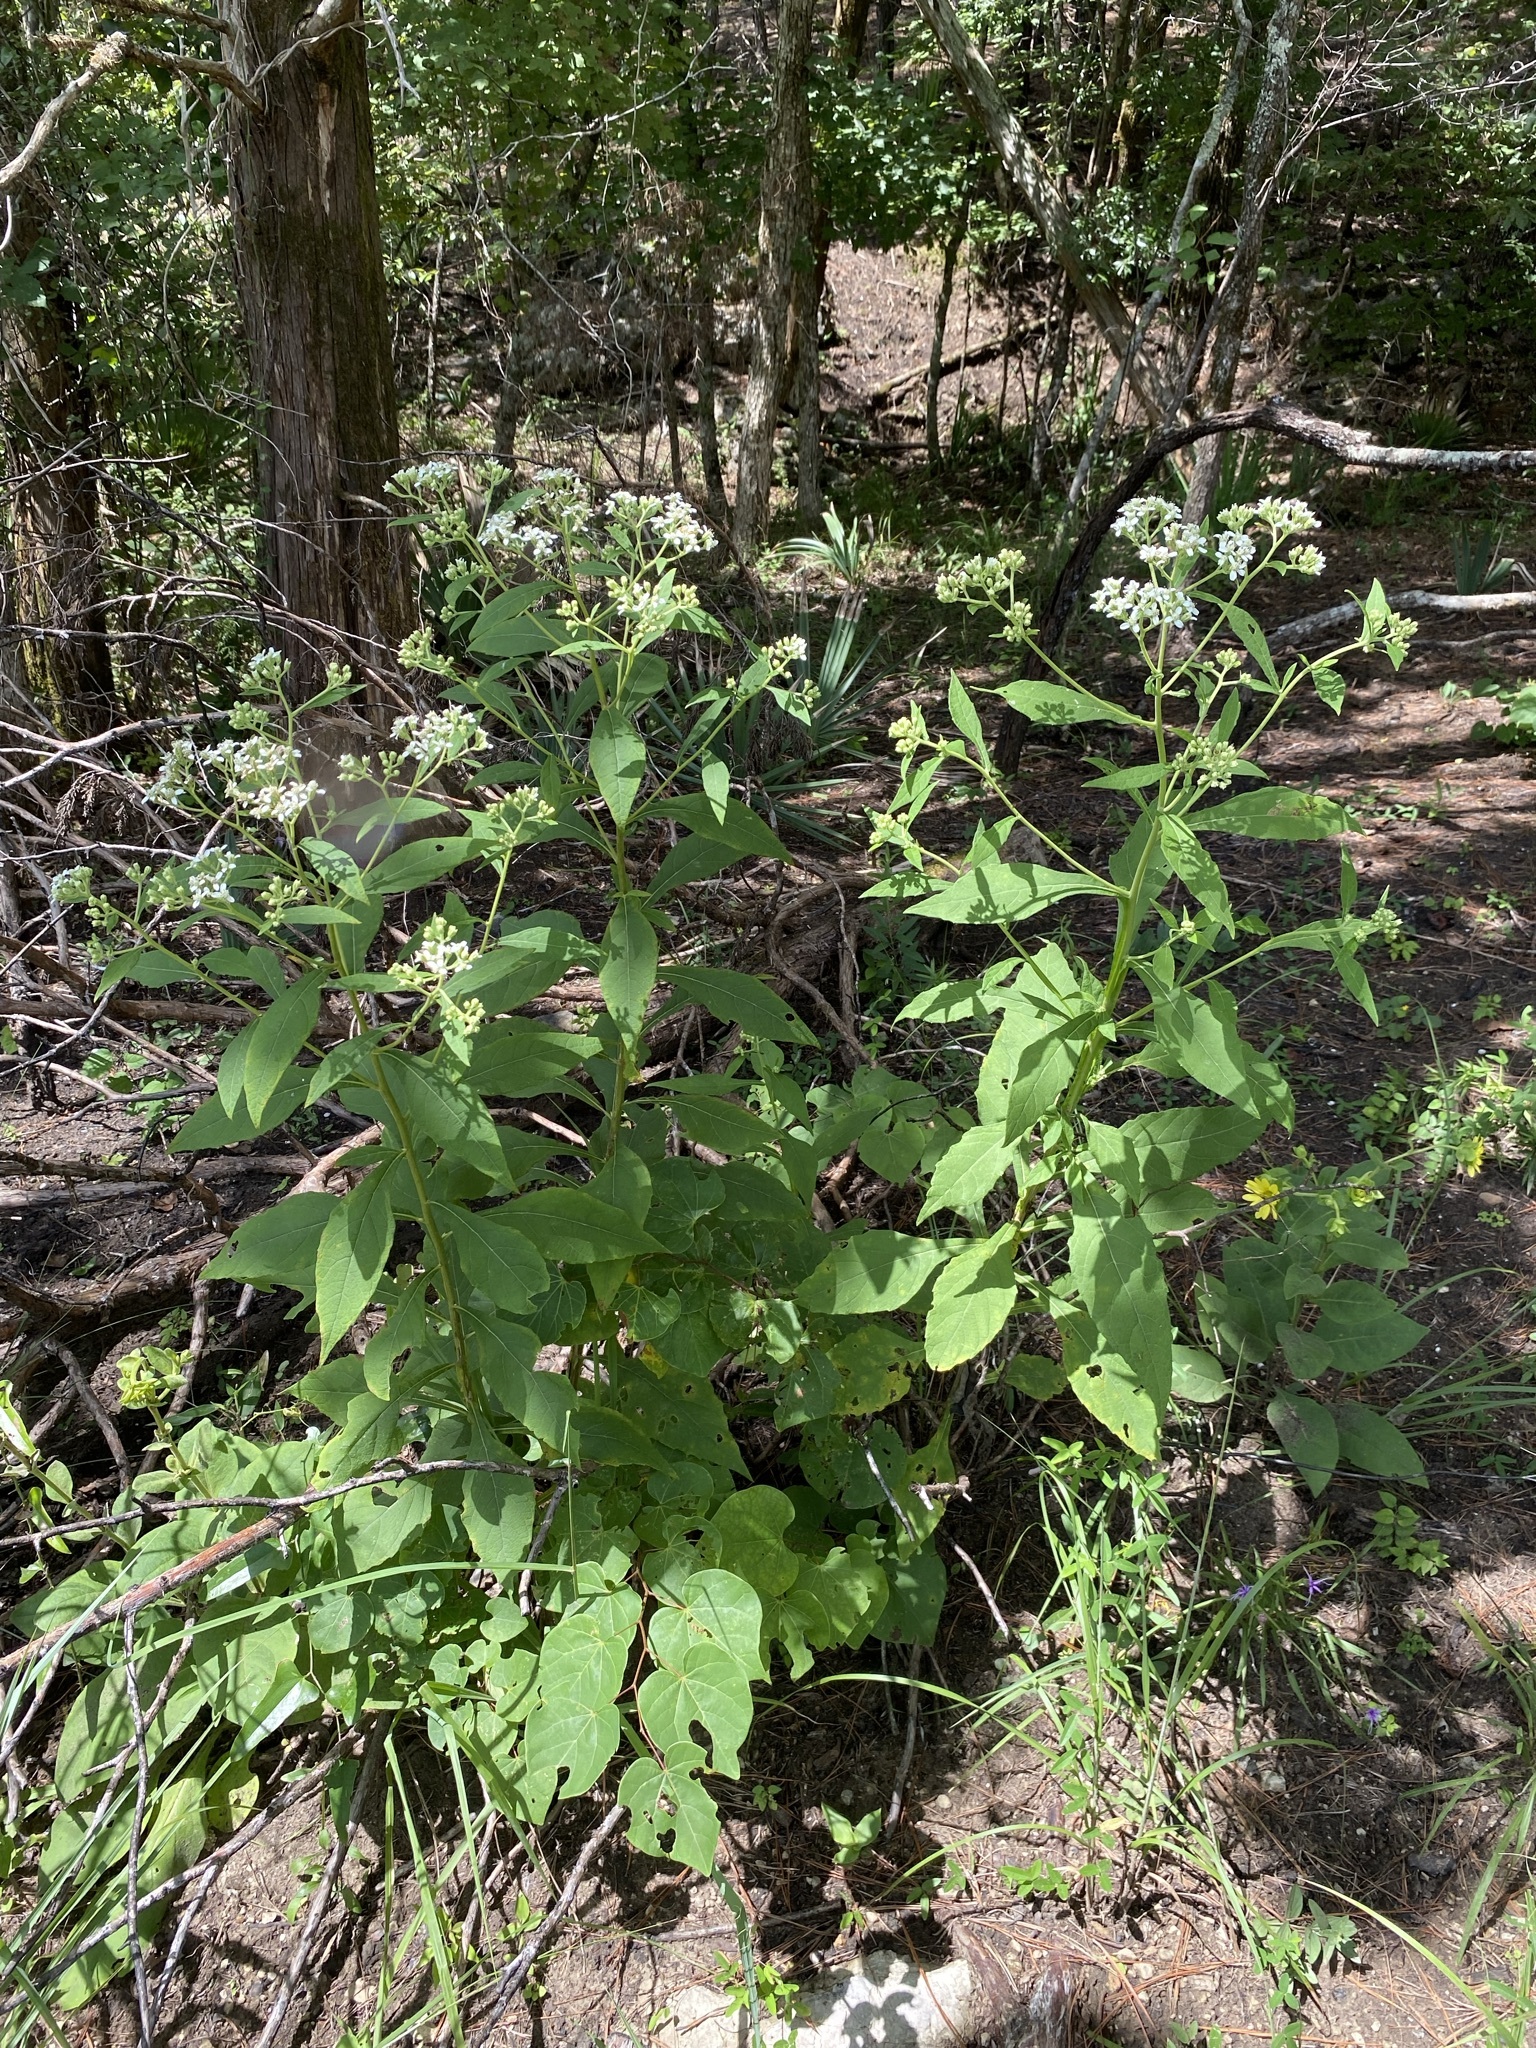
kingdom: Plantae
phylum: Tracheophyta
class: Magnoliopsida
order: Asterales
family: Asteraceae
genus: Verbesina
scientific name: Verbesina virginica
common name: Frostweed
